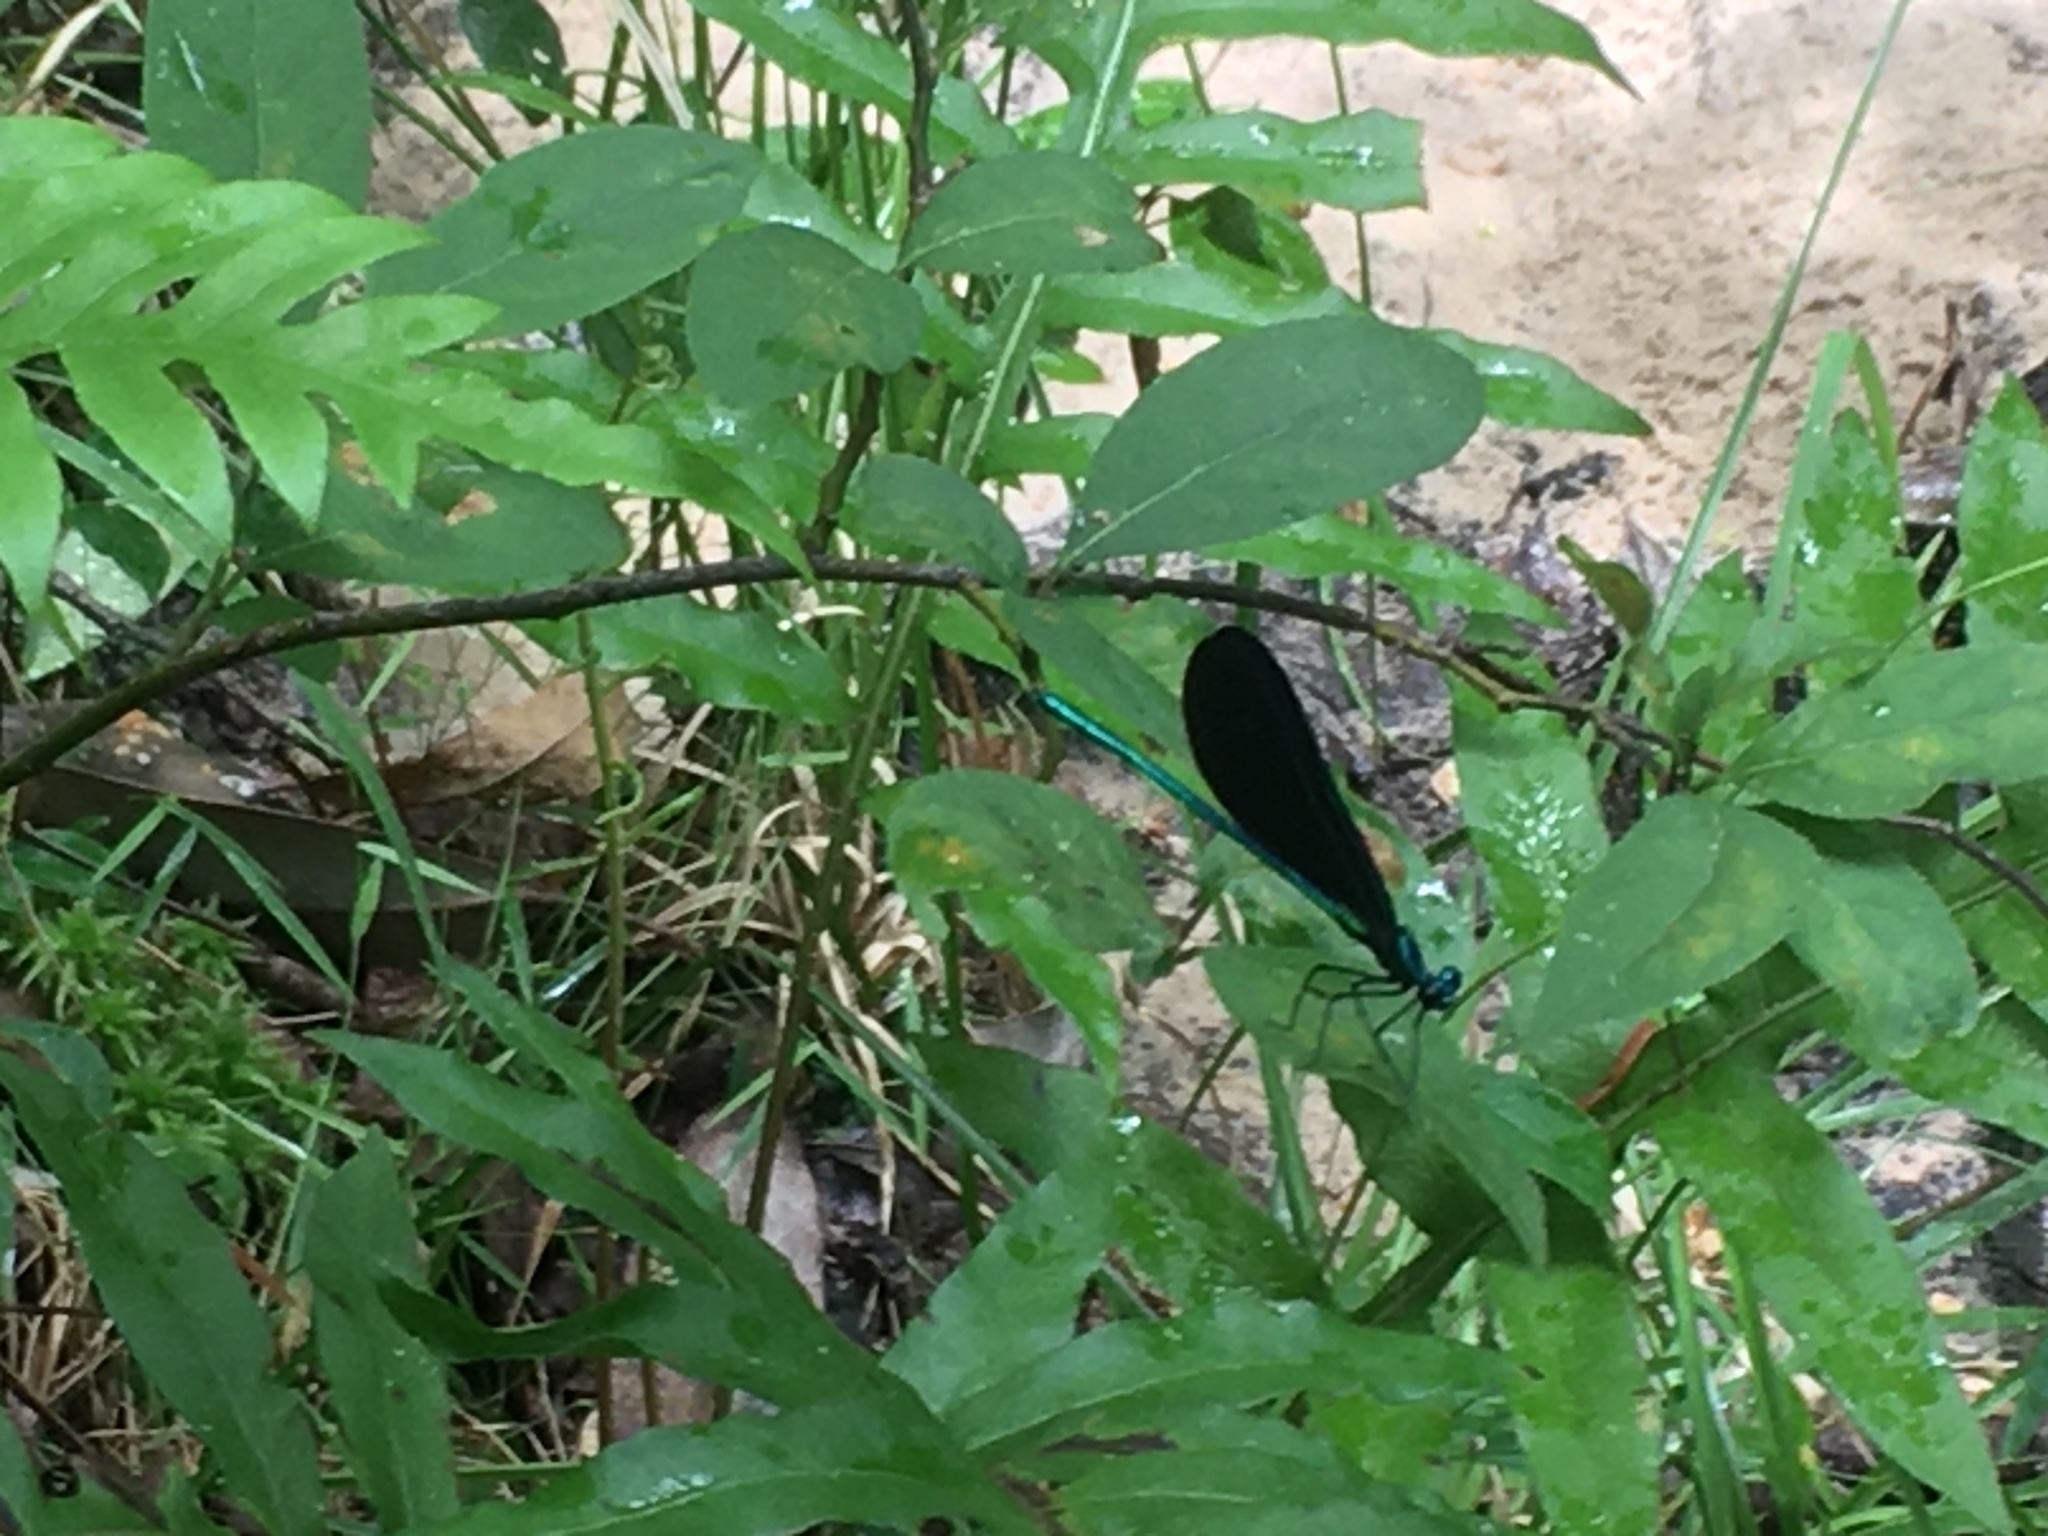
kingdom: Animalia
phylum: Arthropoda
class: Insecta
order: Odonata
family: Calopterygidae
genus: Calopteryx
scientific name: Calopteryx maculata
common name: Ebony jewelwing
